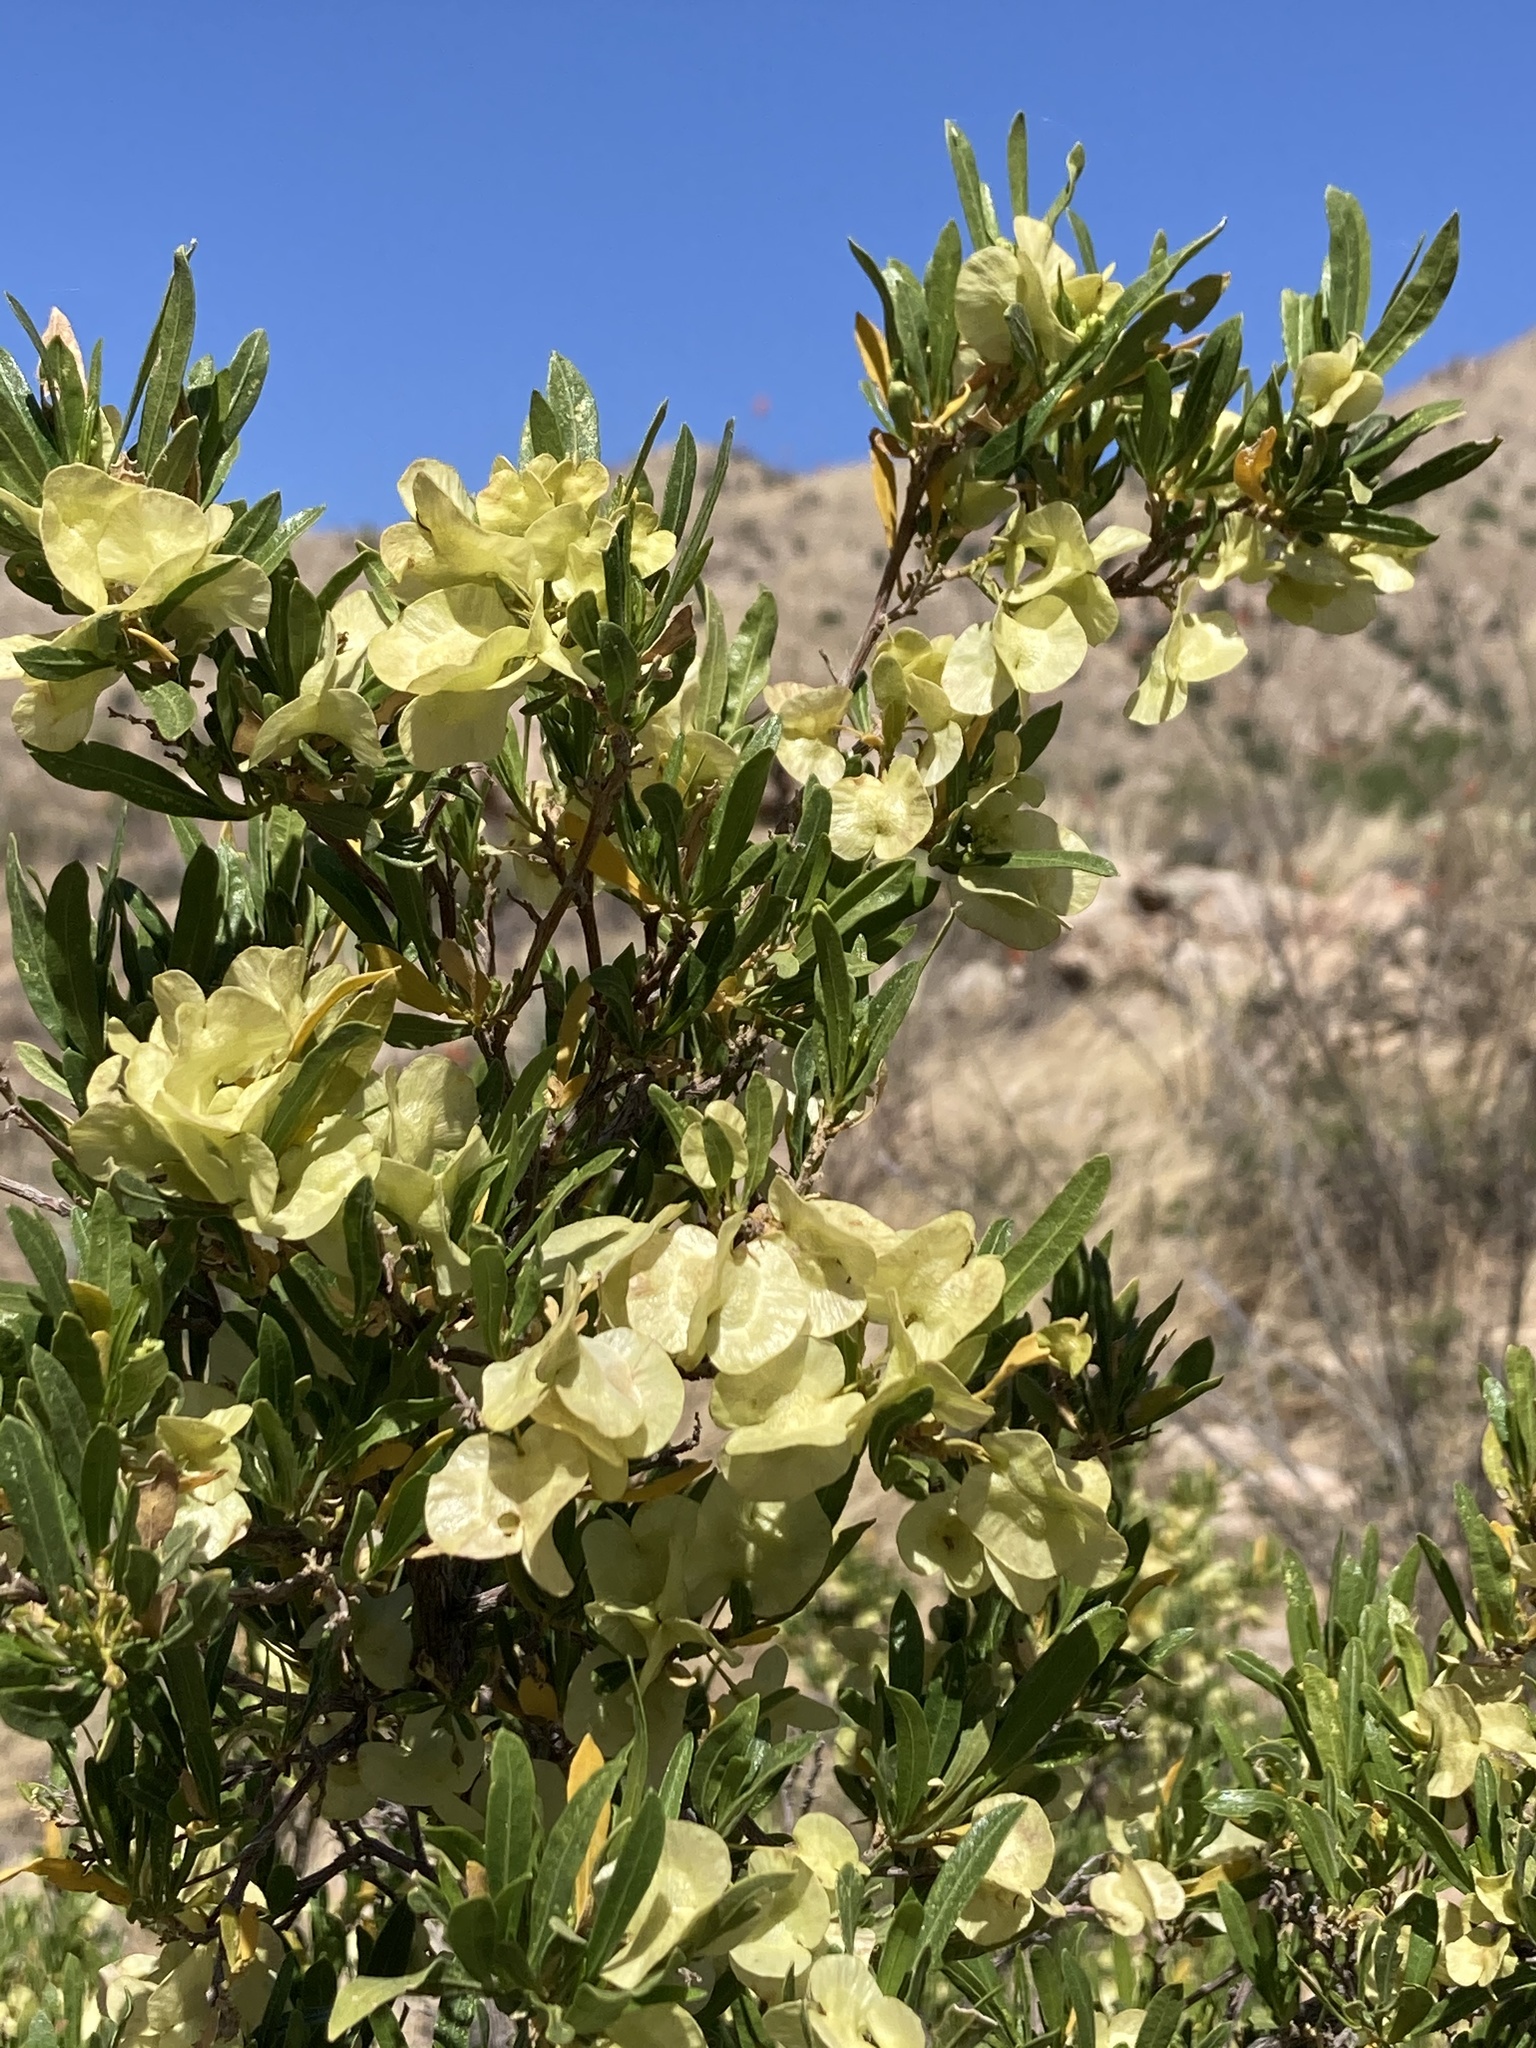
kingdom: Plantae
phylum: Tracheophyta
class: Magnoliopsida
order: Sapindales
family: Sapindaceae
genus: Dodonaea
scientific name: Dodonaea viscosa
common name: Hopbush
